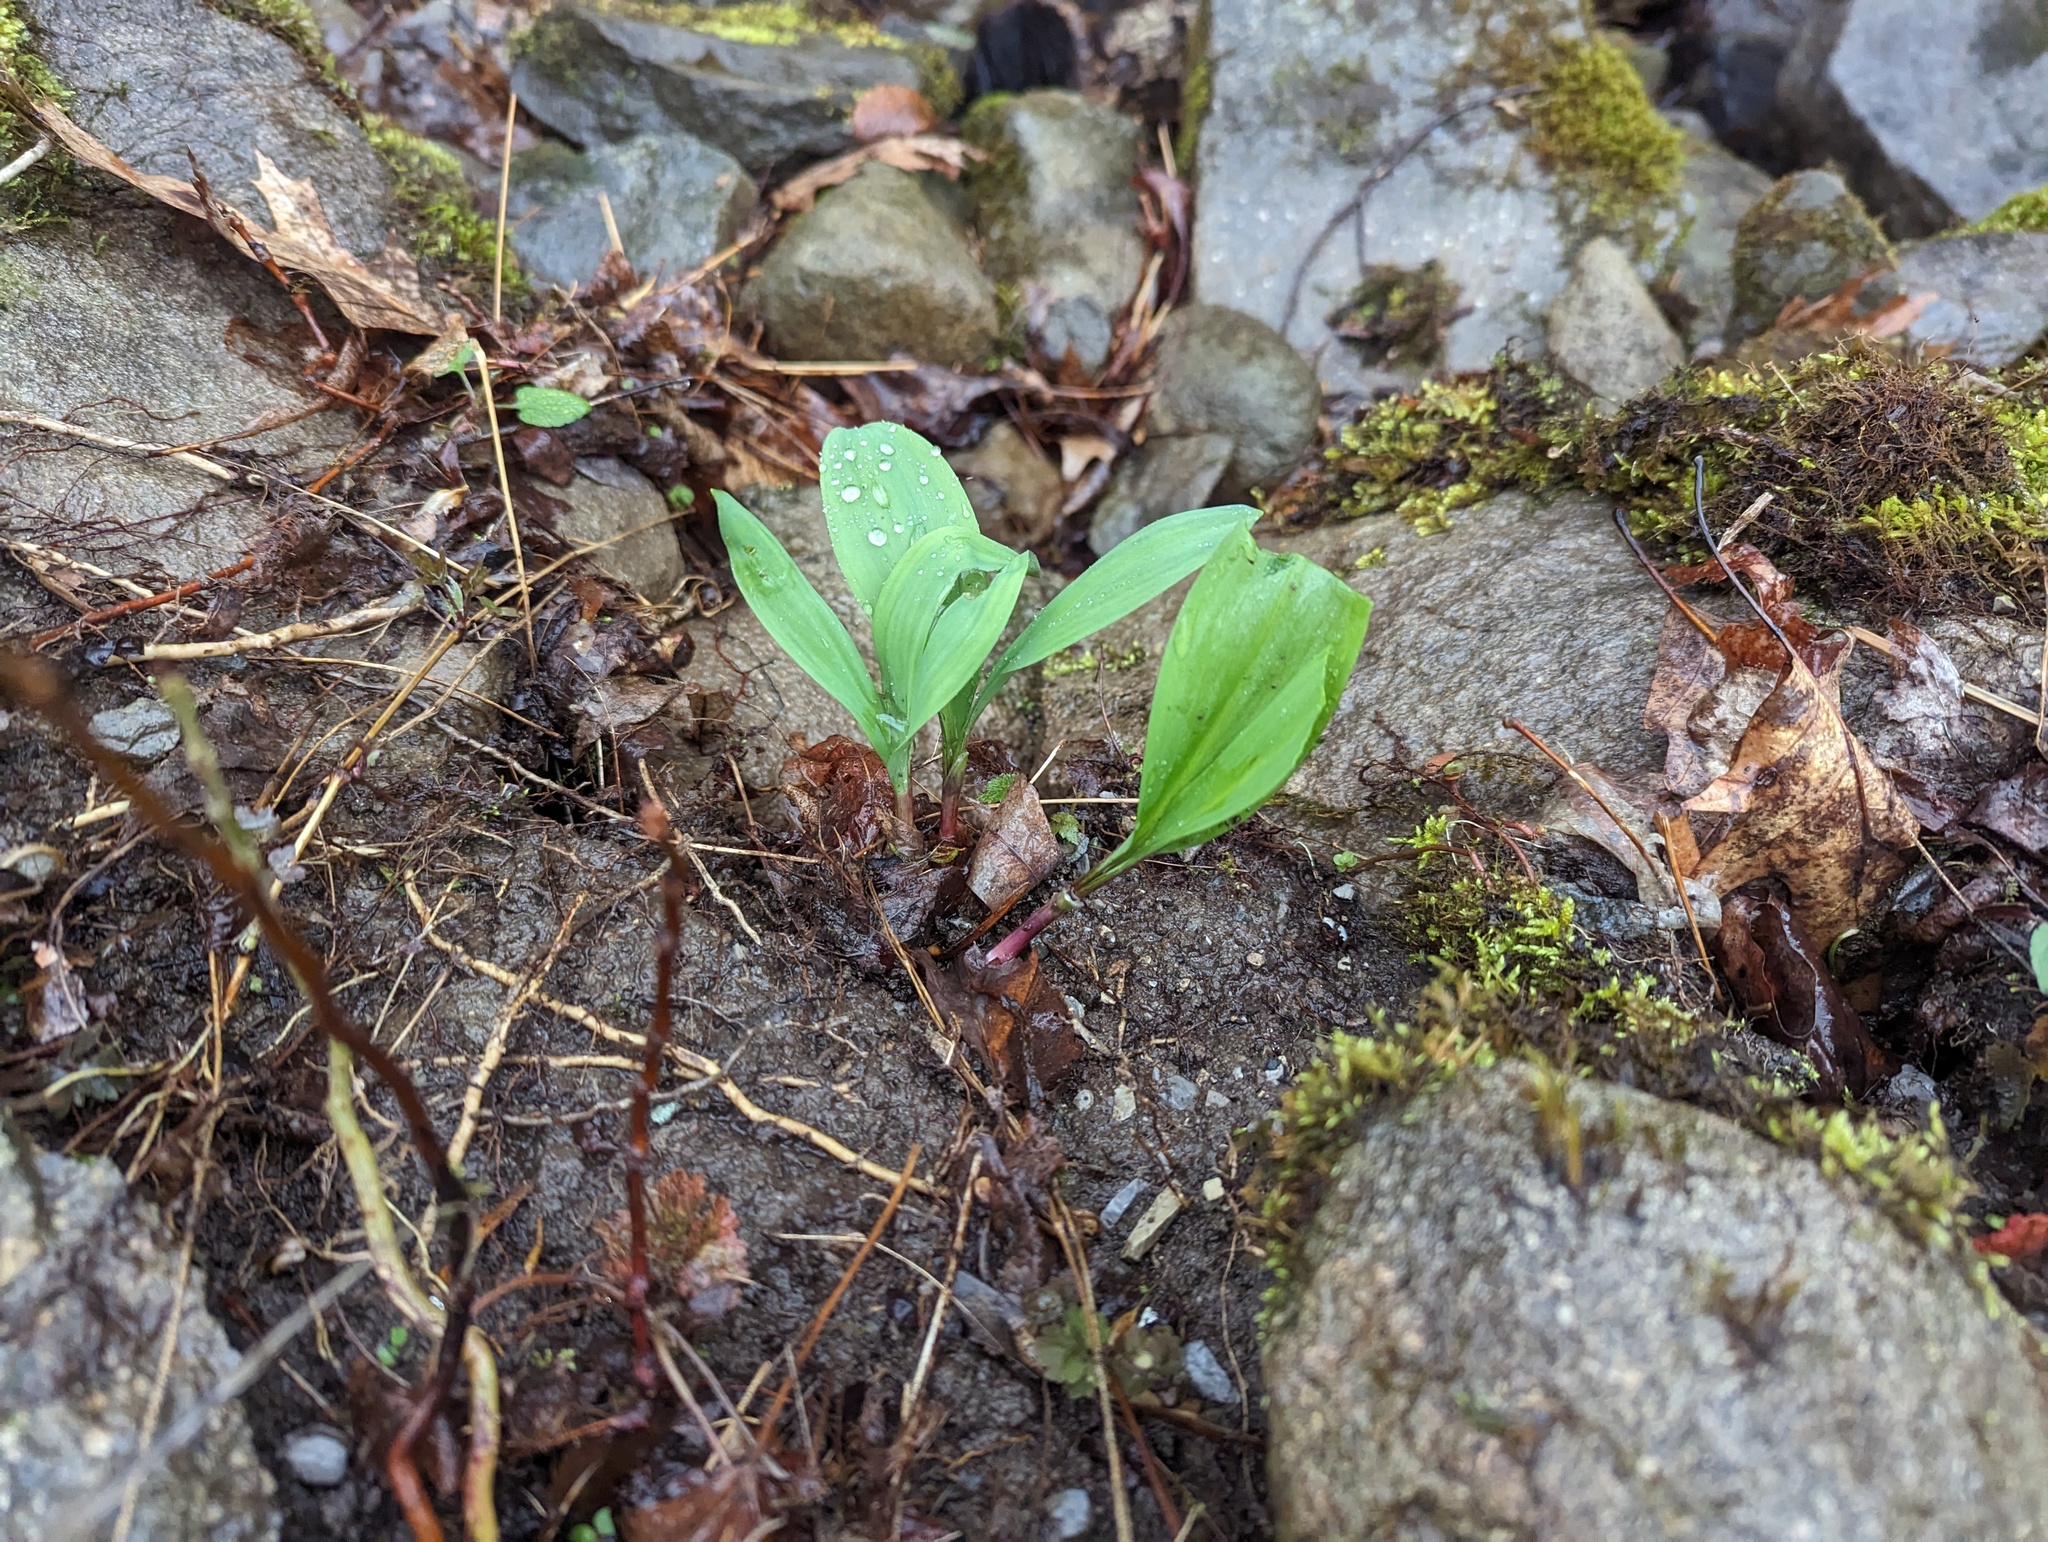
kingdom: Plantae
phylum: Tracheophyta
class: Liliopsida
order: Asparagales
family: Amaryllidaceae
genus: Allium
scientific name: Allium tricoccum
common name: Ramp
